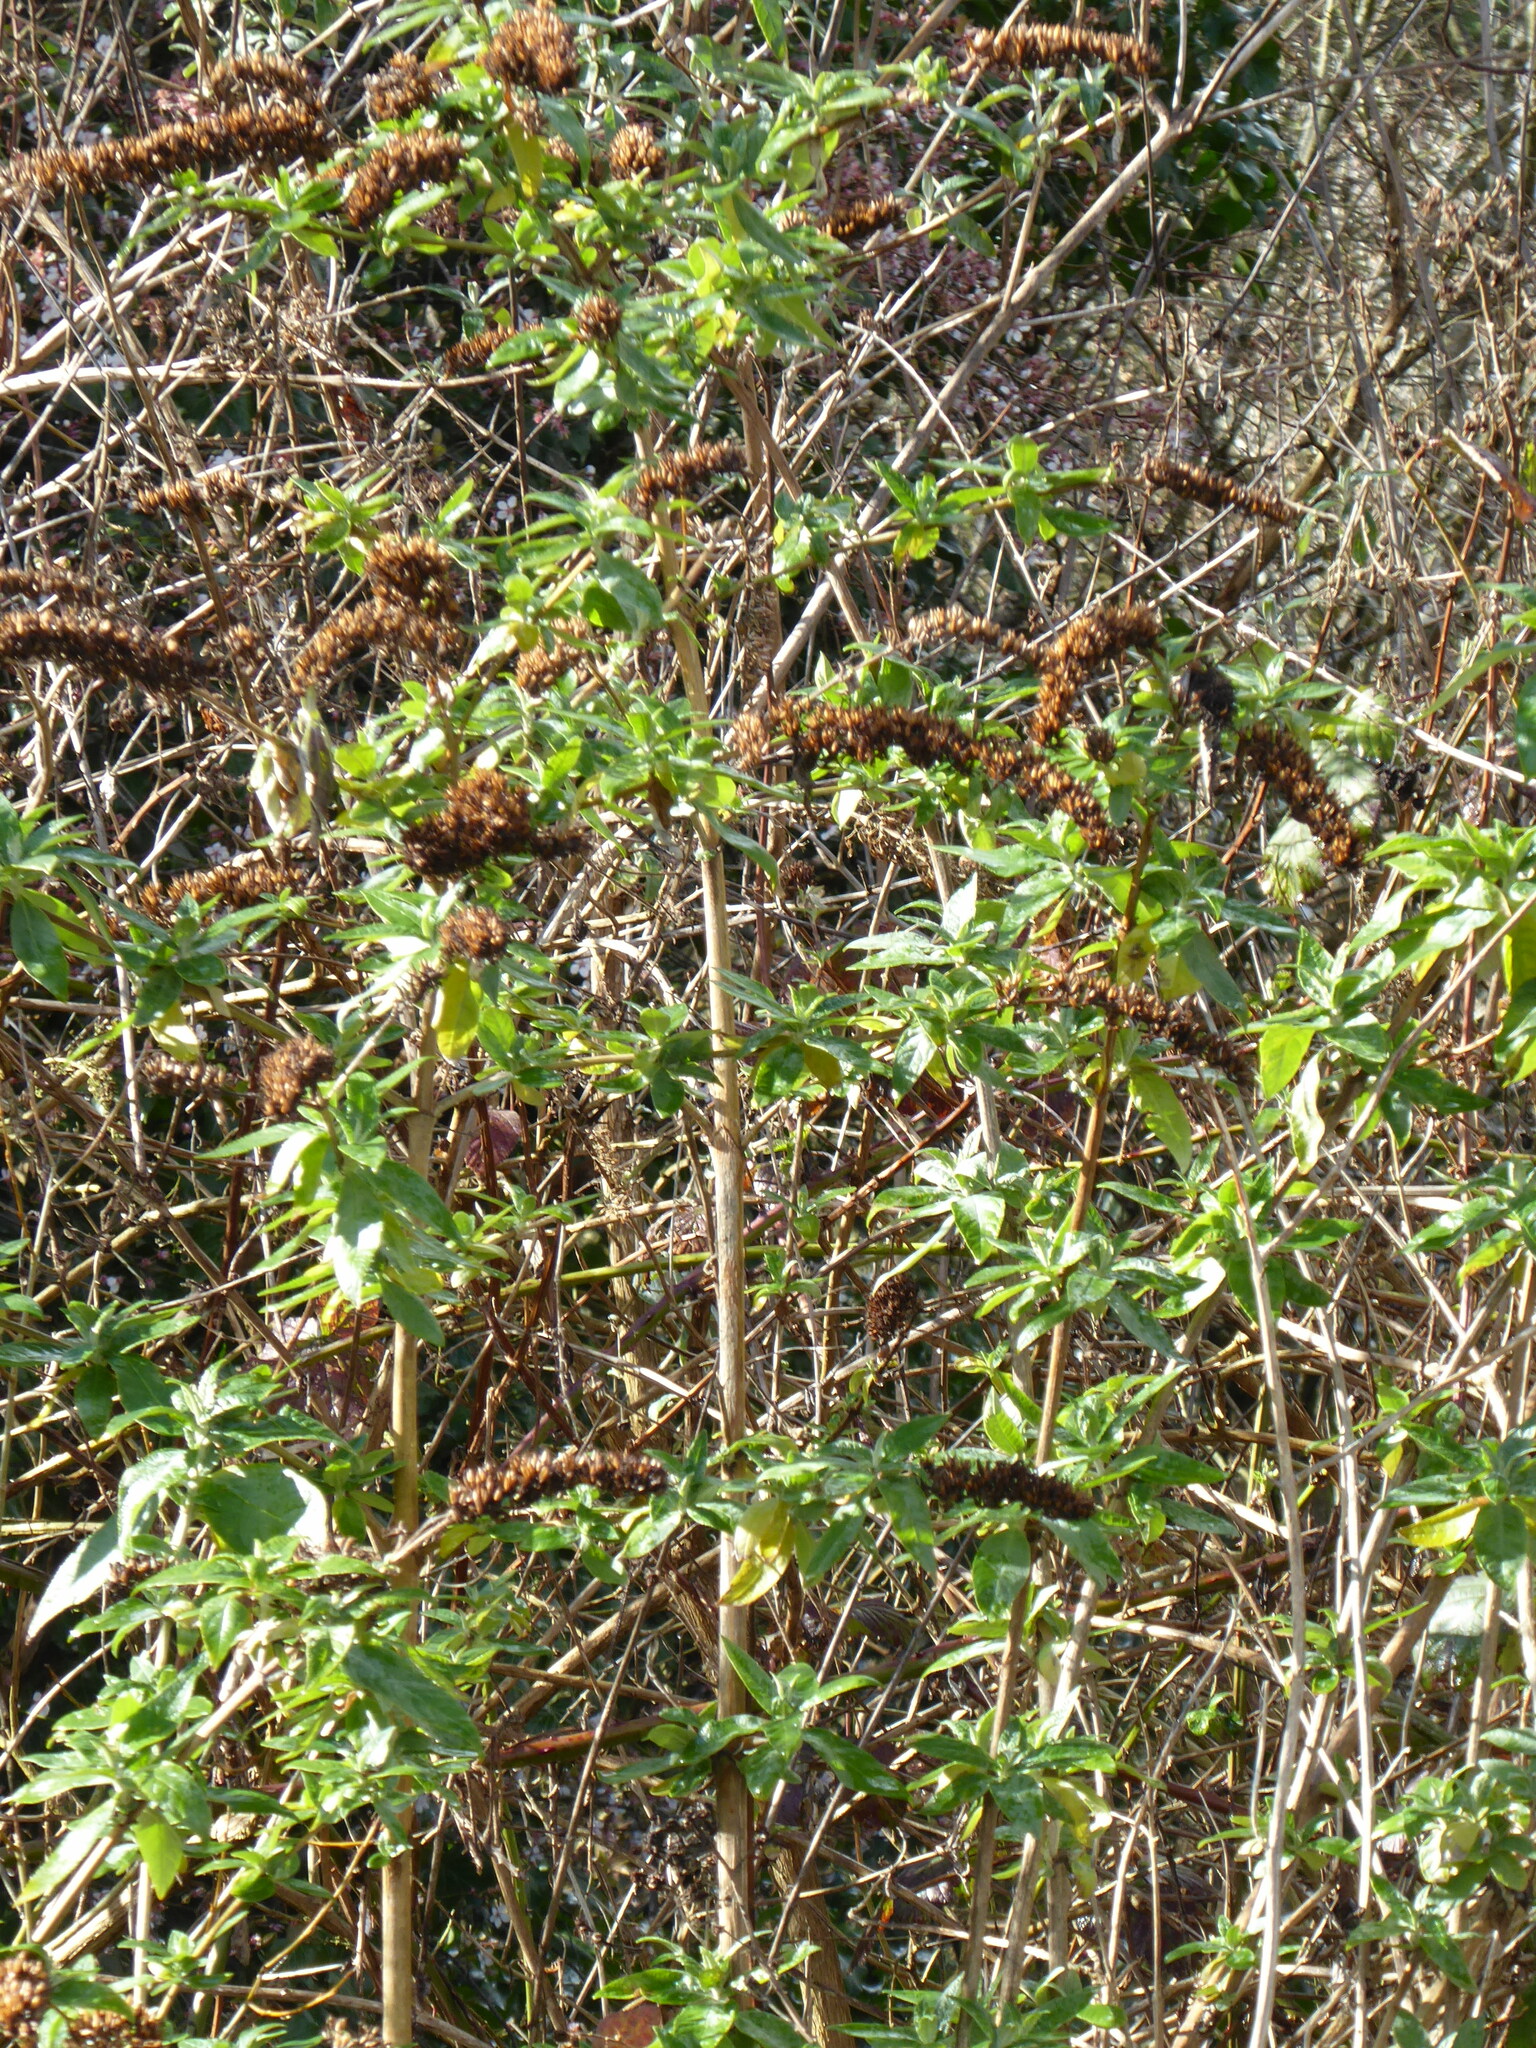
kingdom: Plantae
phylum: Tracheophyta
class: Magnoliopsida
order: Lamiales
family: Scrophulariaceae
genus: Buddleja
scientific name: Buddleja davidii
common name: Butterfly-bush
